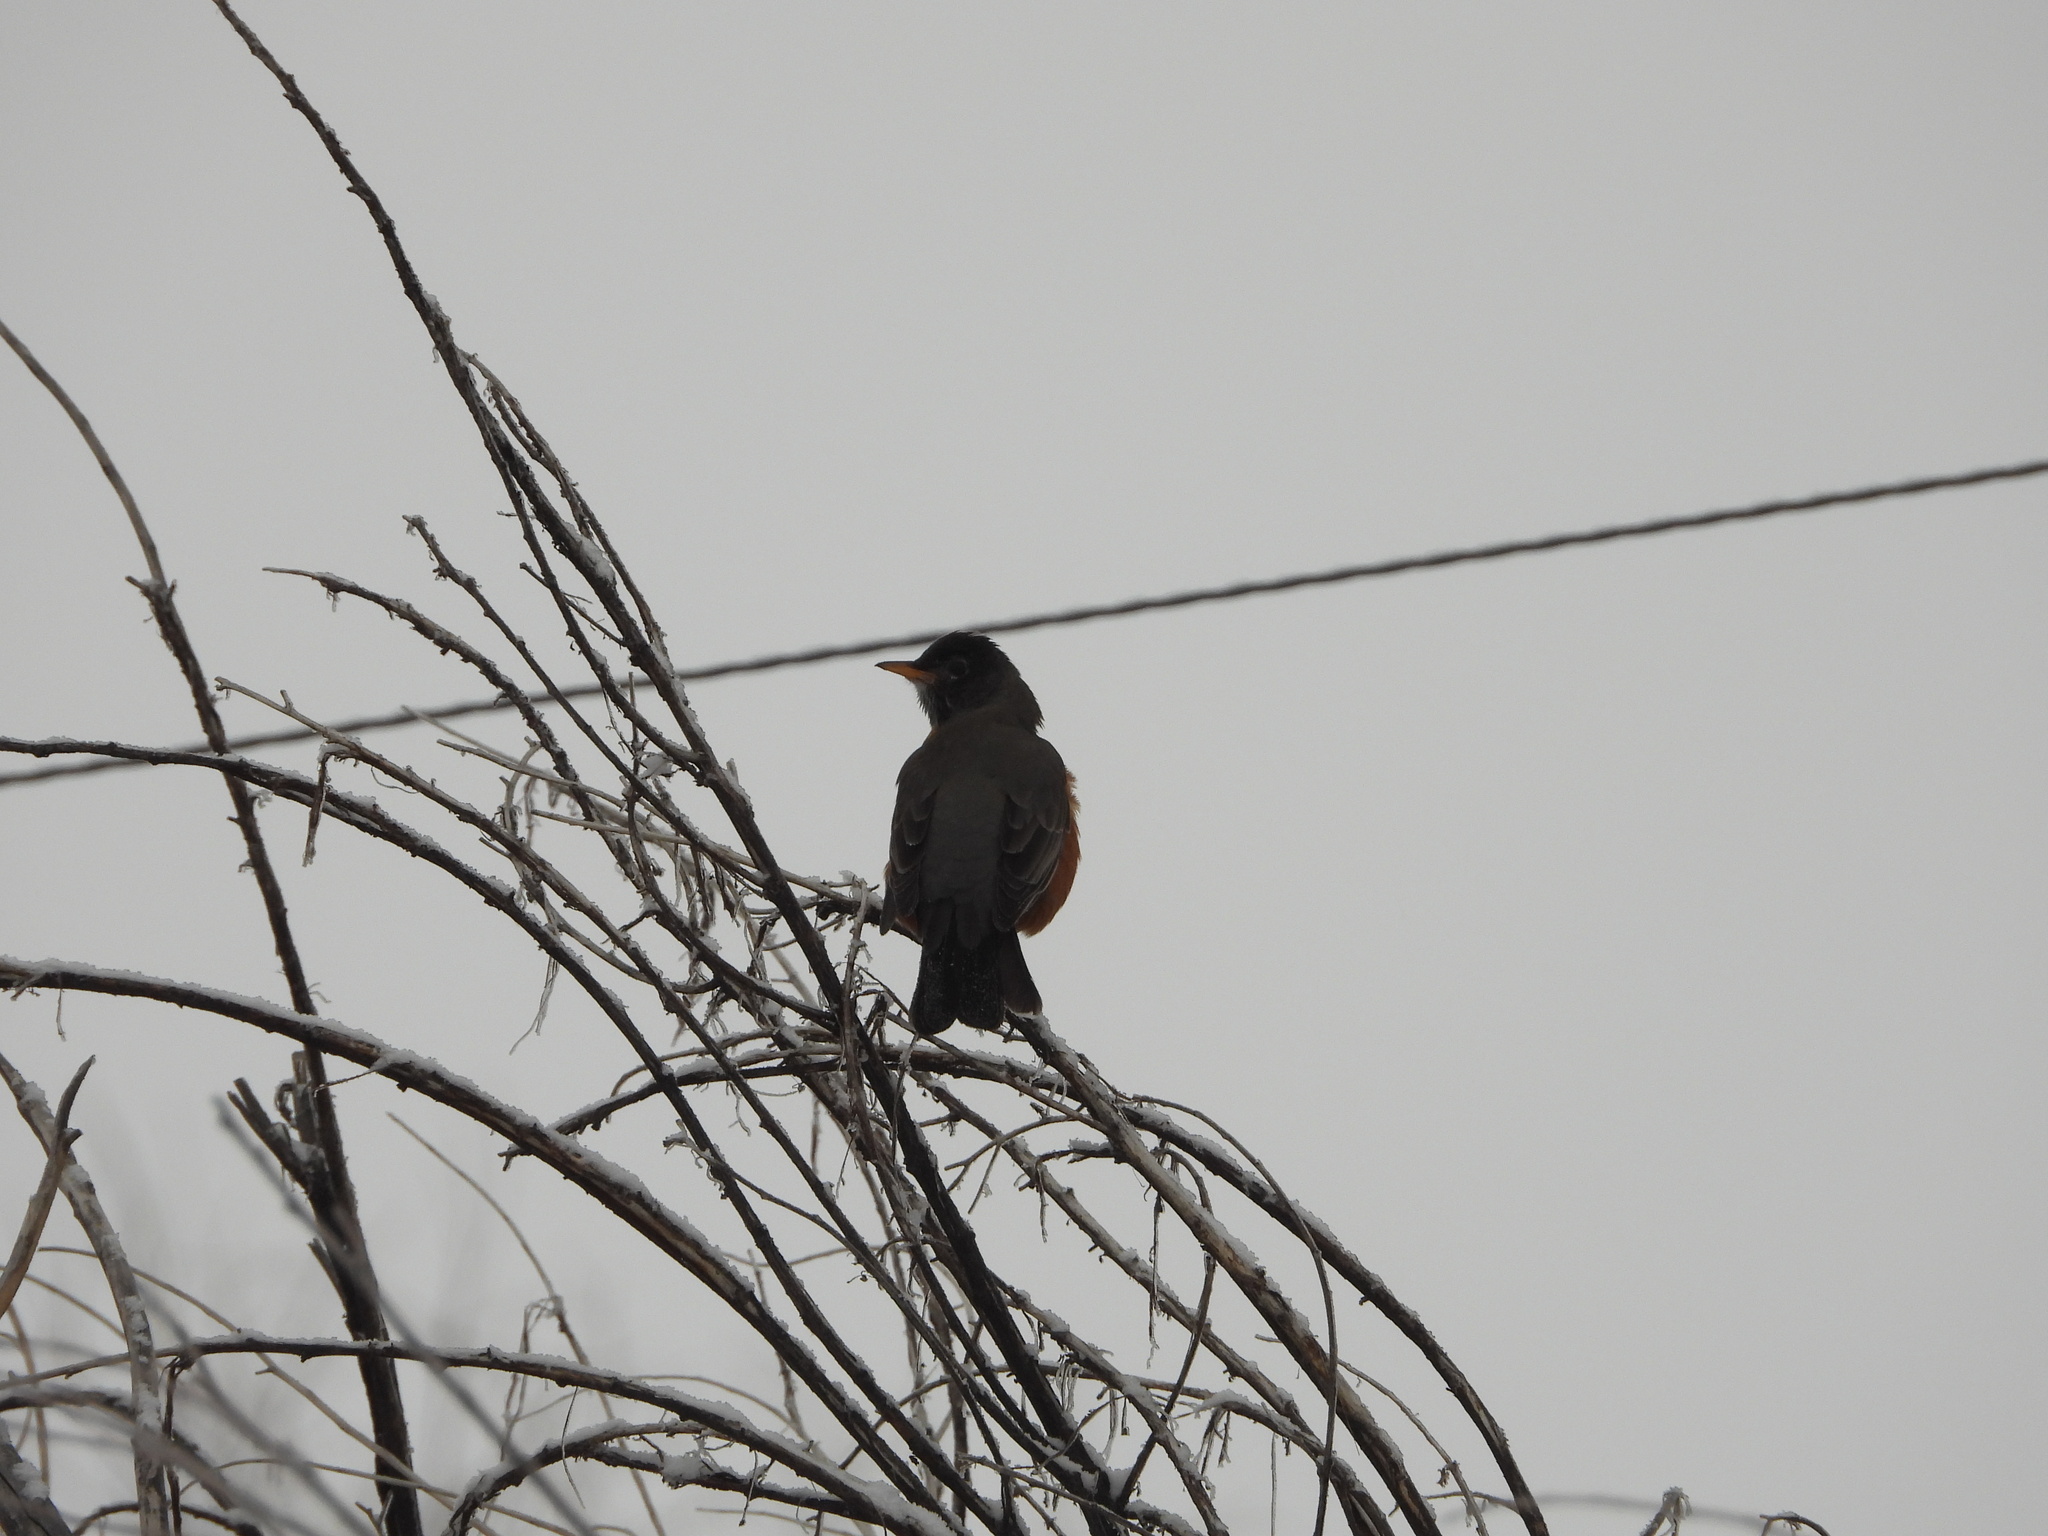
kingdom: Animalia
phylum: Chordata
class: Aves
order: Passeriformes
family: Turdidae
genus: Turdus
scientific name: Turdus migratorius
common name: American robin
